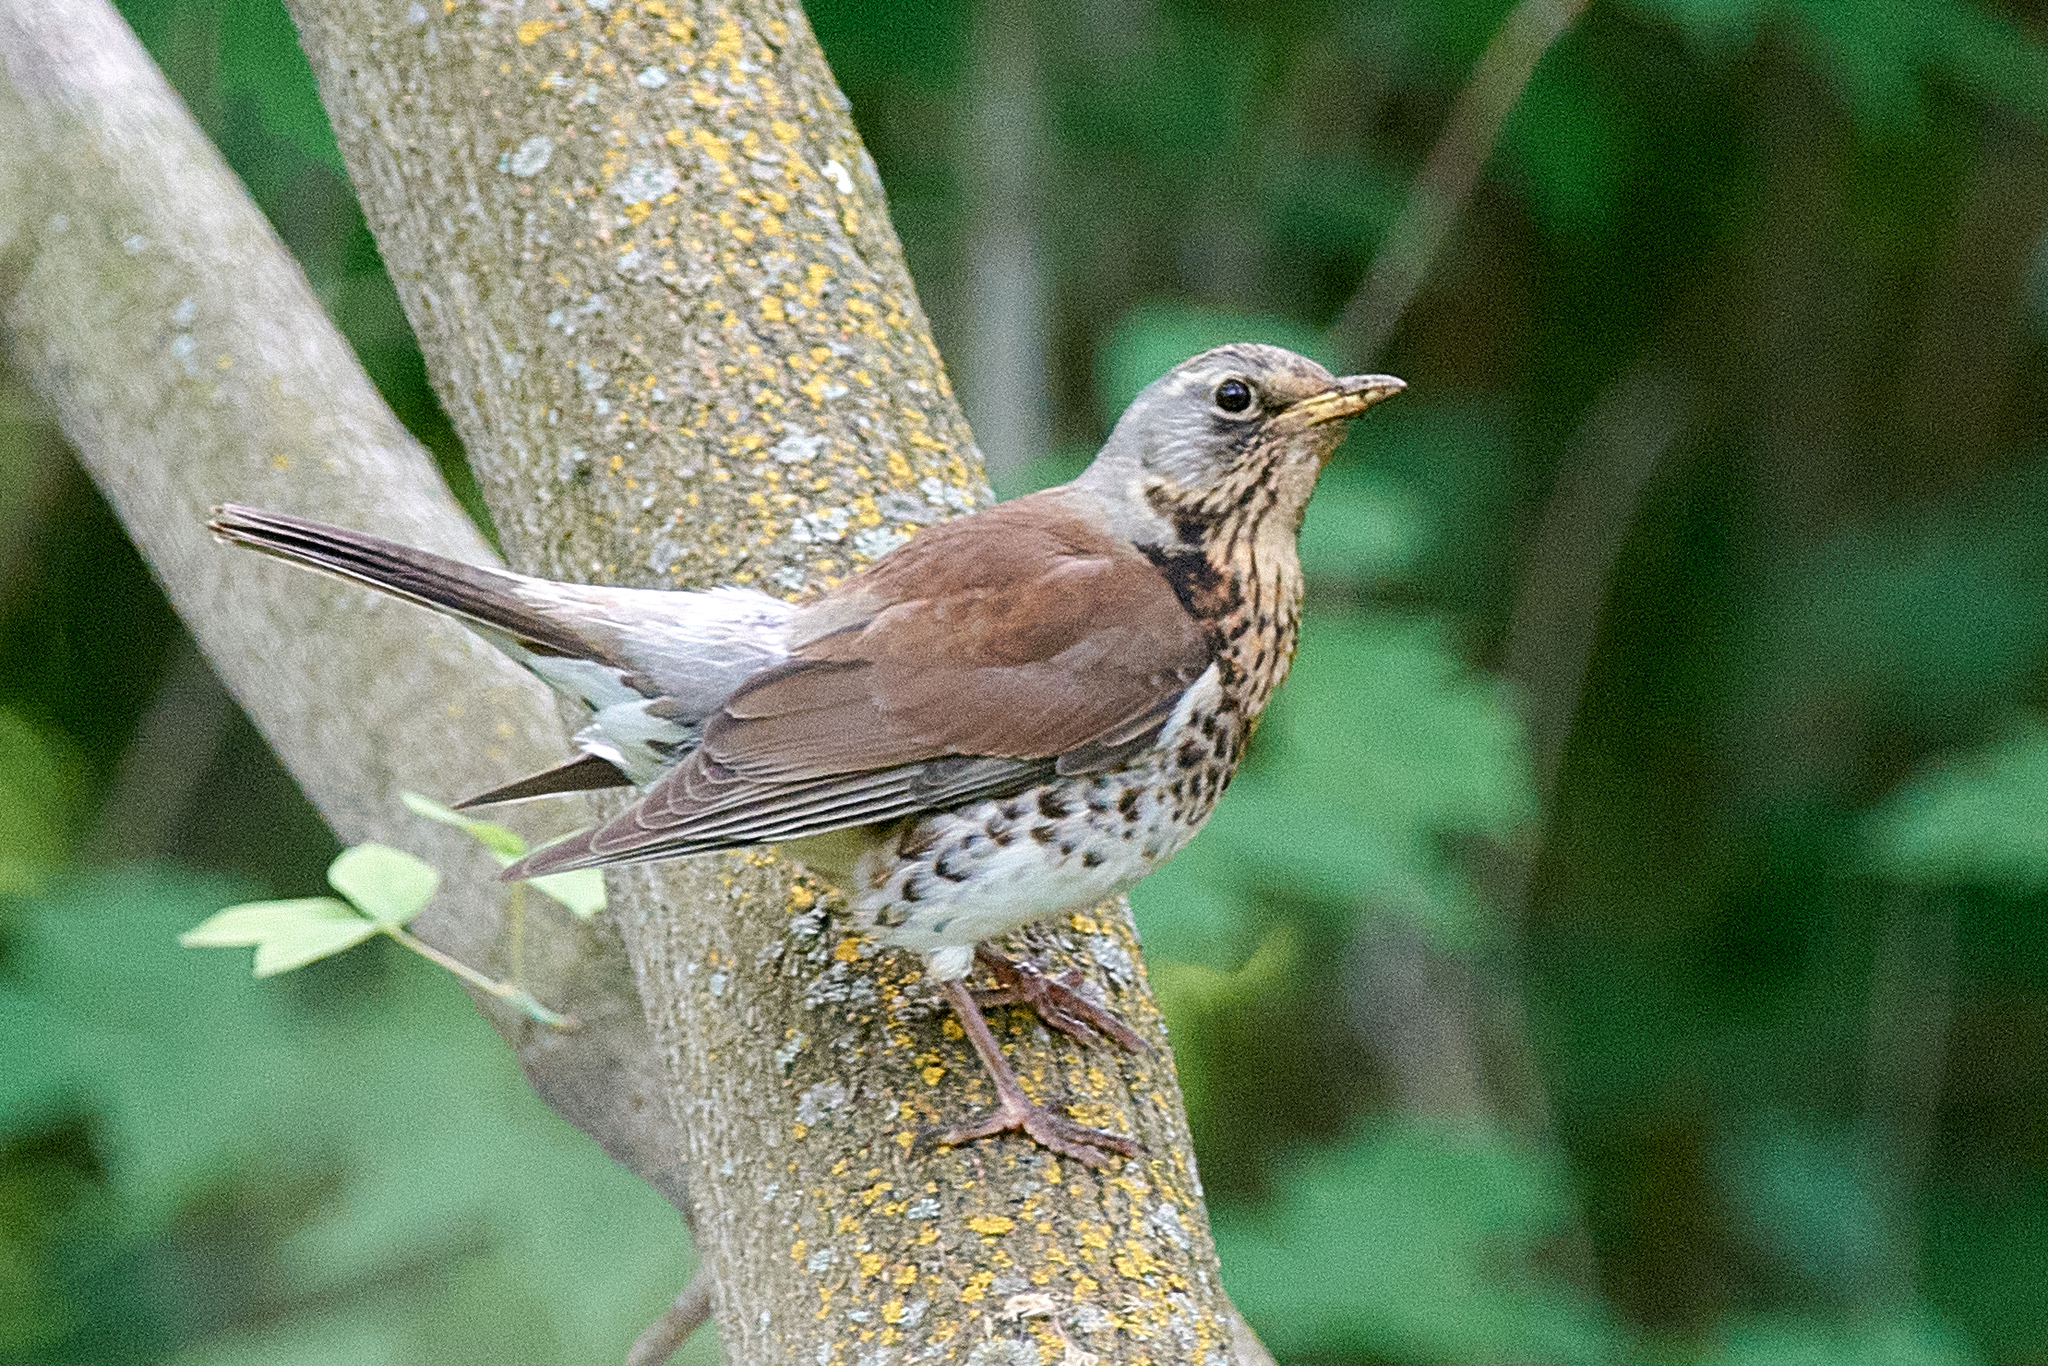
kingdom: Animalia
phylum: Chordata
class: Aves
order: Passeriformes
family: Turdidae
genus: Turdus
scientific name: Turdus pilaris
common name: Fieldfare
